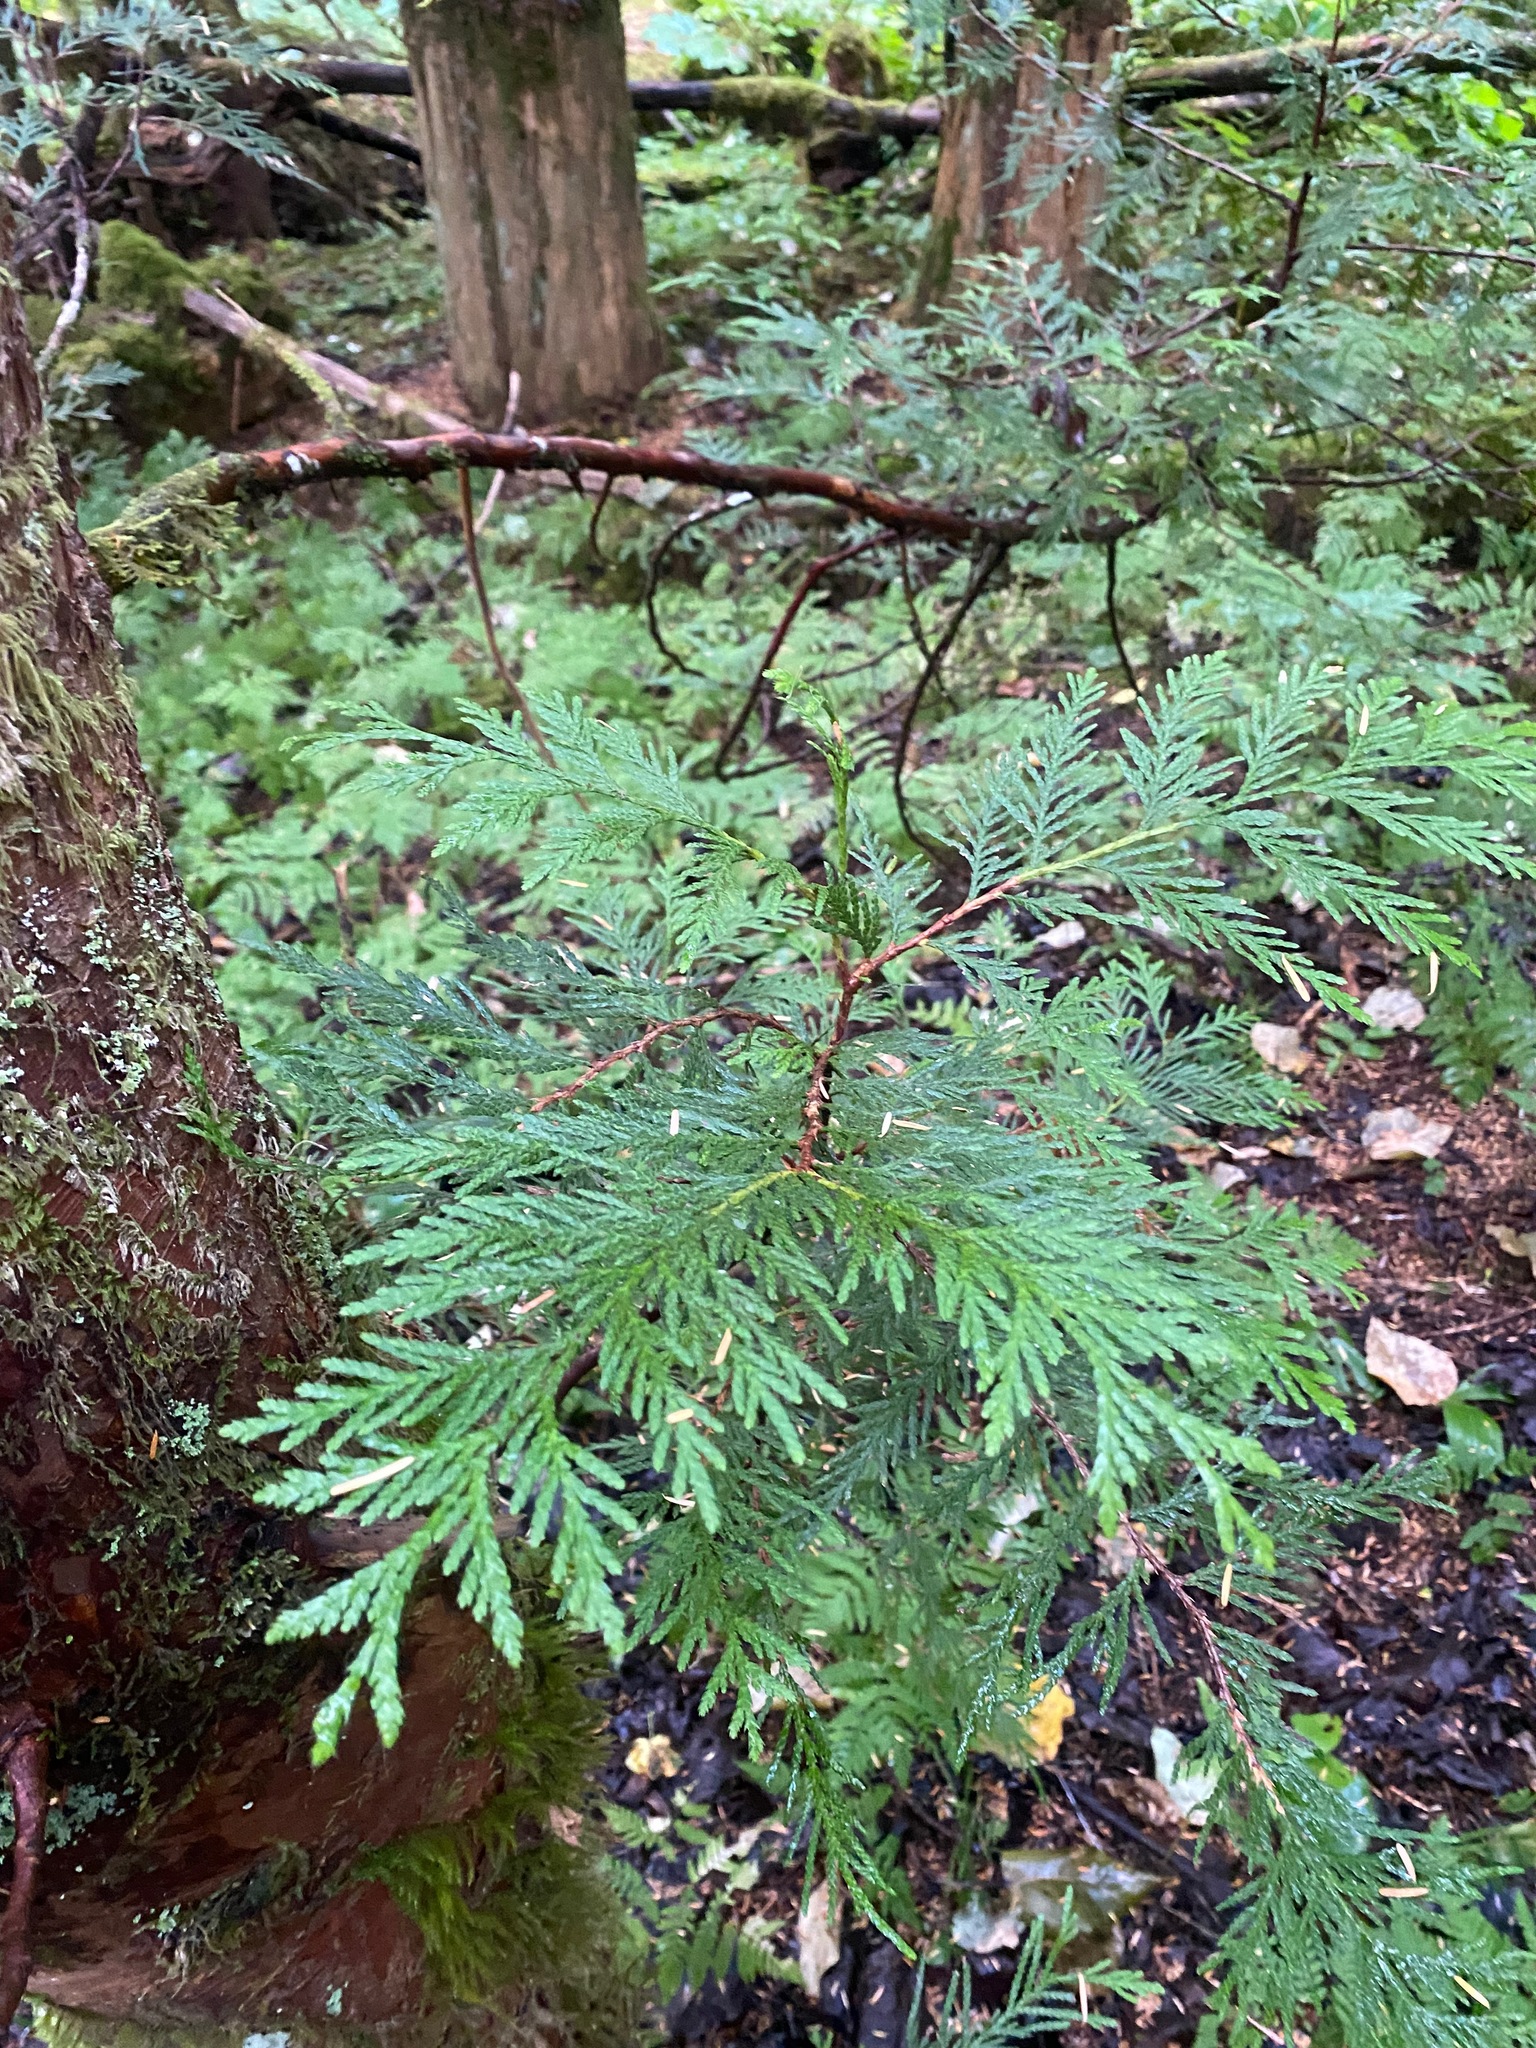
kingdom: Plantae
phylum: Tracheophyta
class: Pinopsida
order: Pinales
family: Cupressaceae
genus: Thuja
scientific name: Thuja plicata
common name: Western red-cedar
